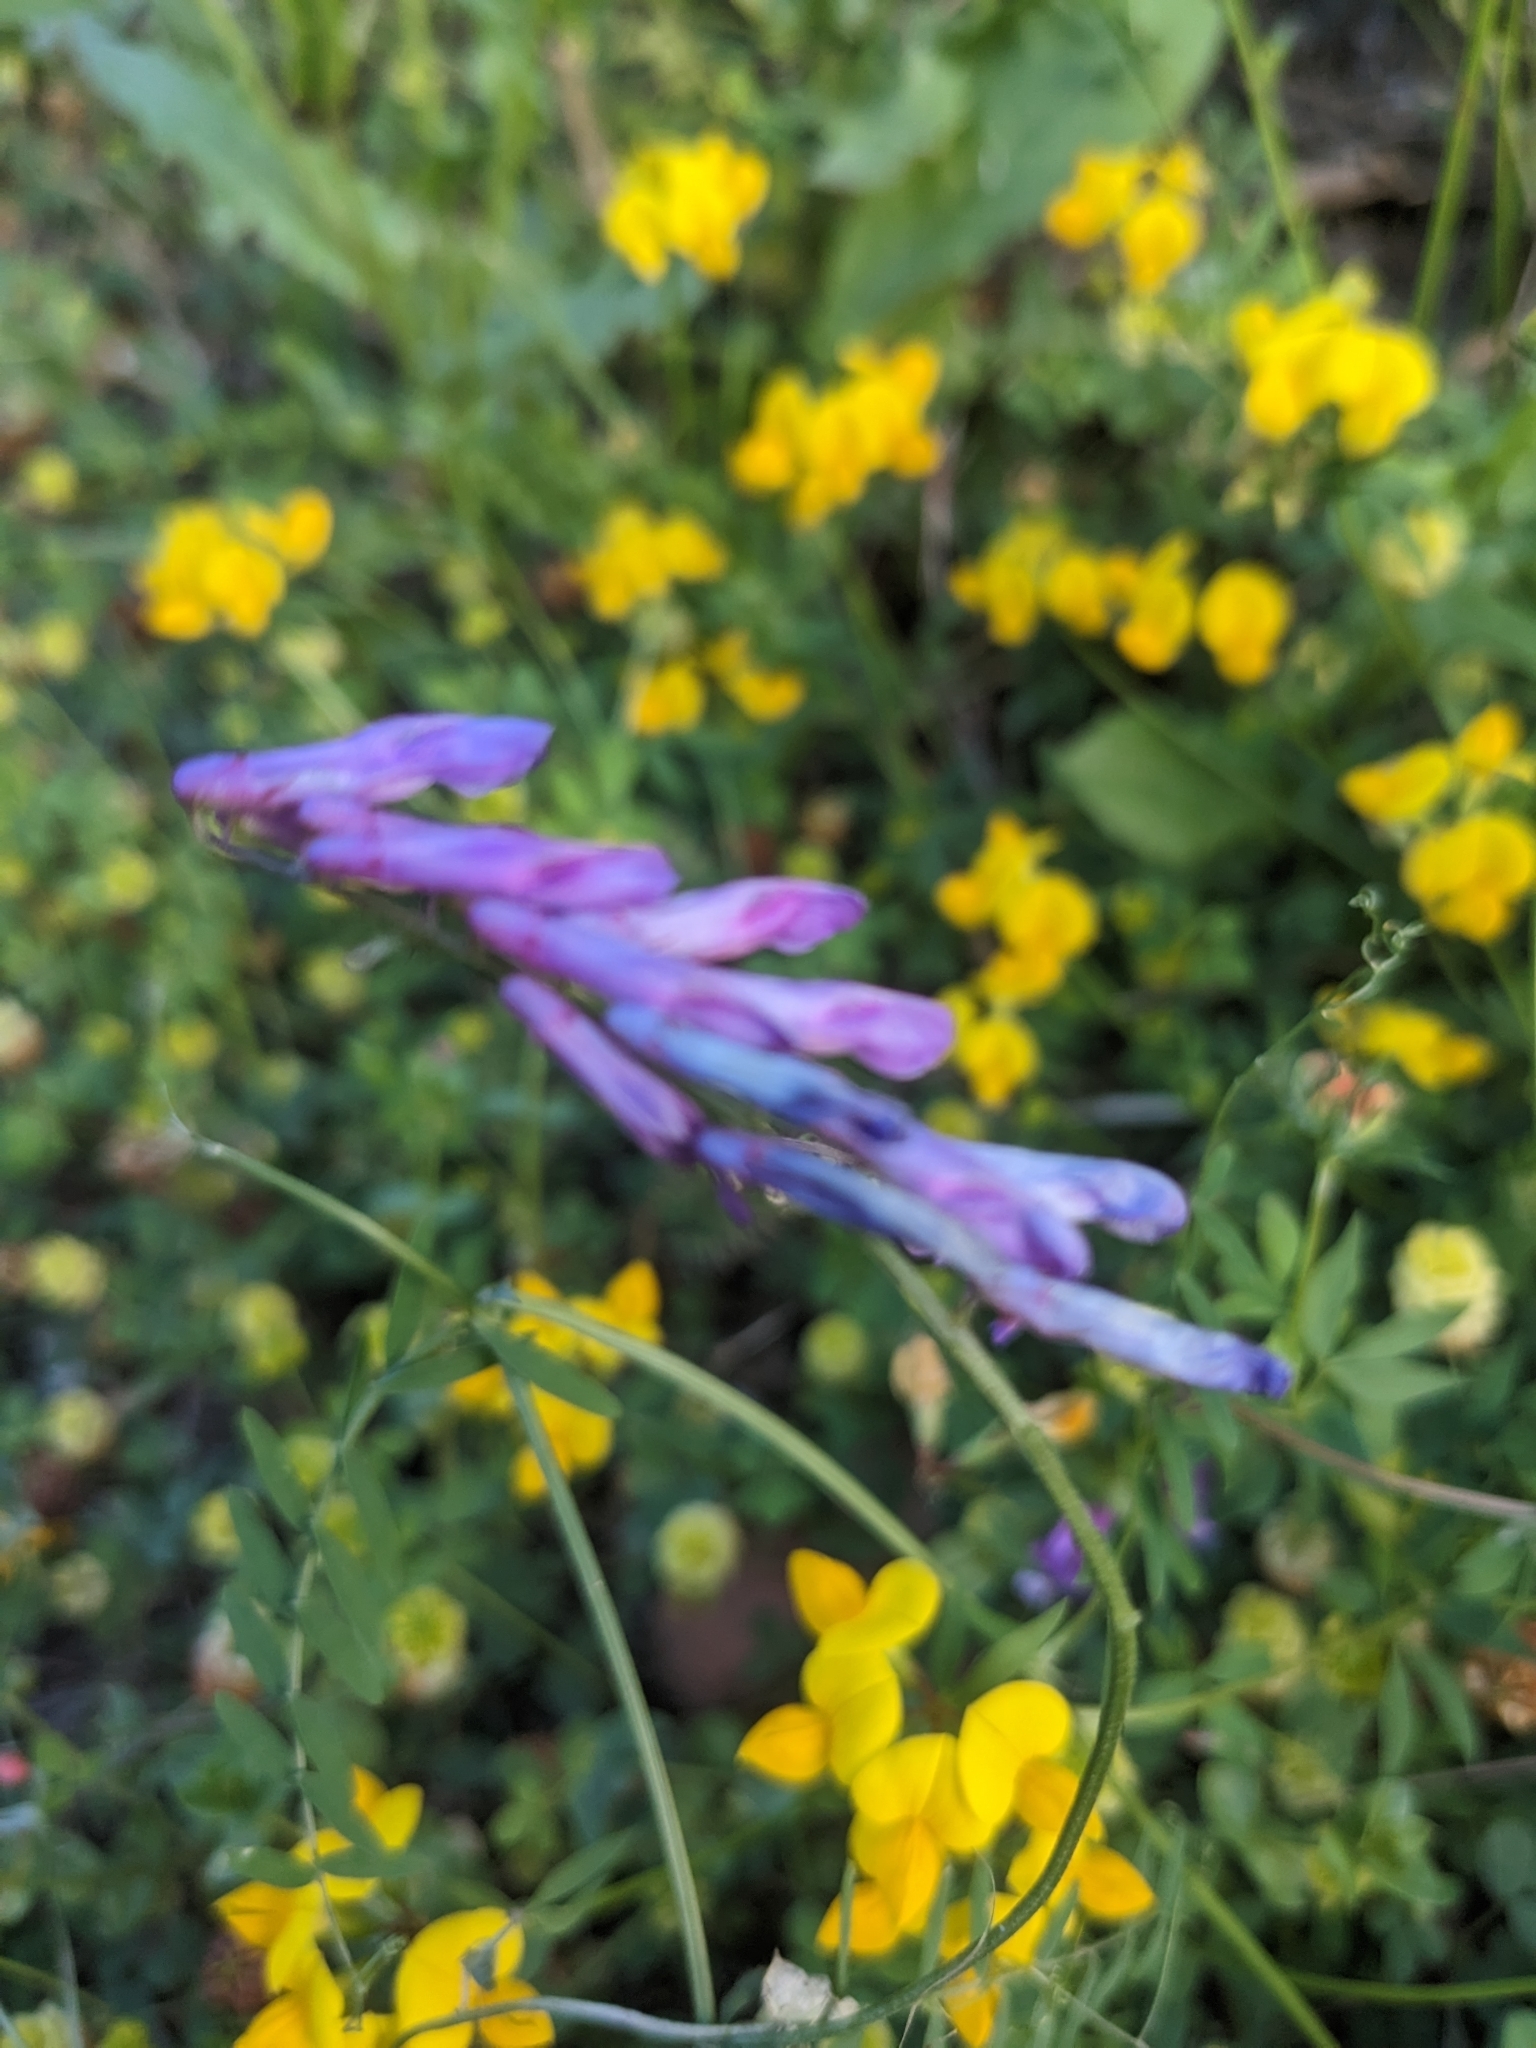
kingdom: Plantae
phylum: Tracheophyta
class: Magnoliopsida
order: Fabales
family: Fabaceae
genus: Vicia
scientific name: Vicia villosa
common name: Fodder vetch
